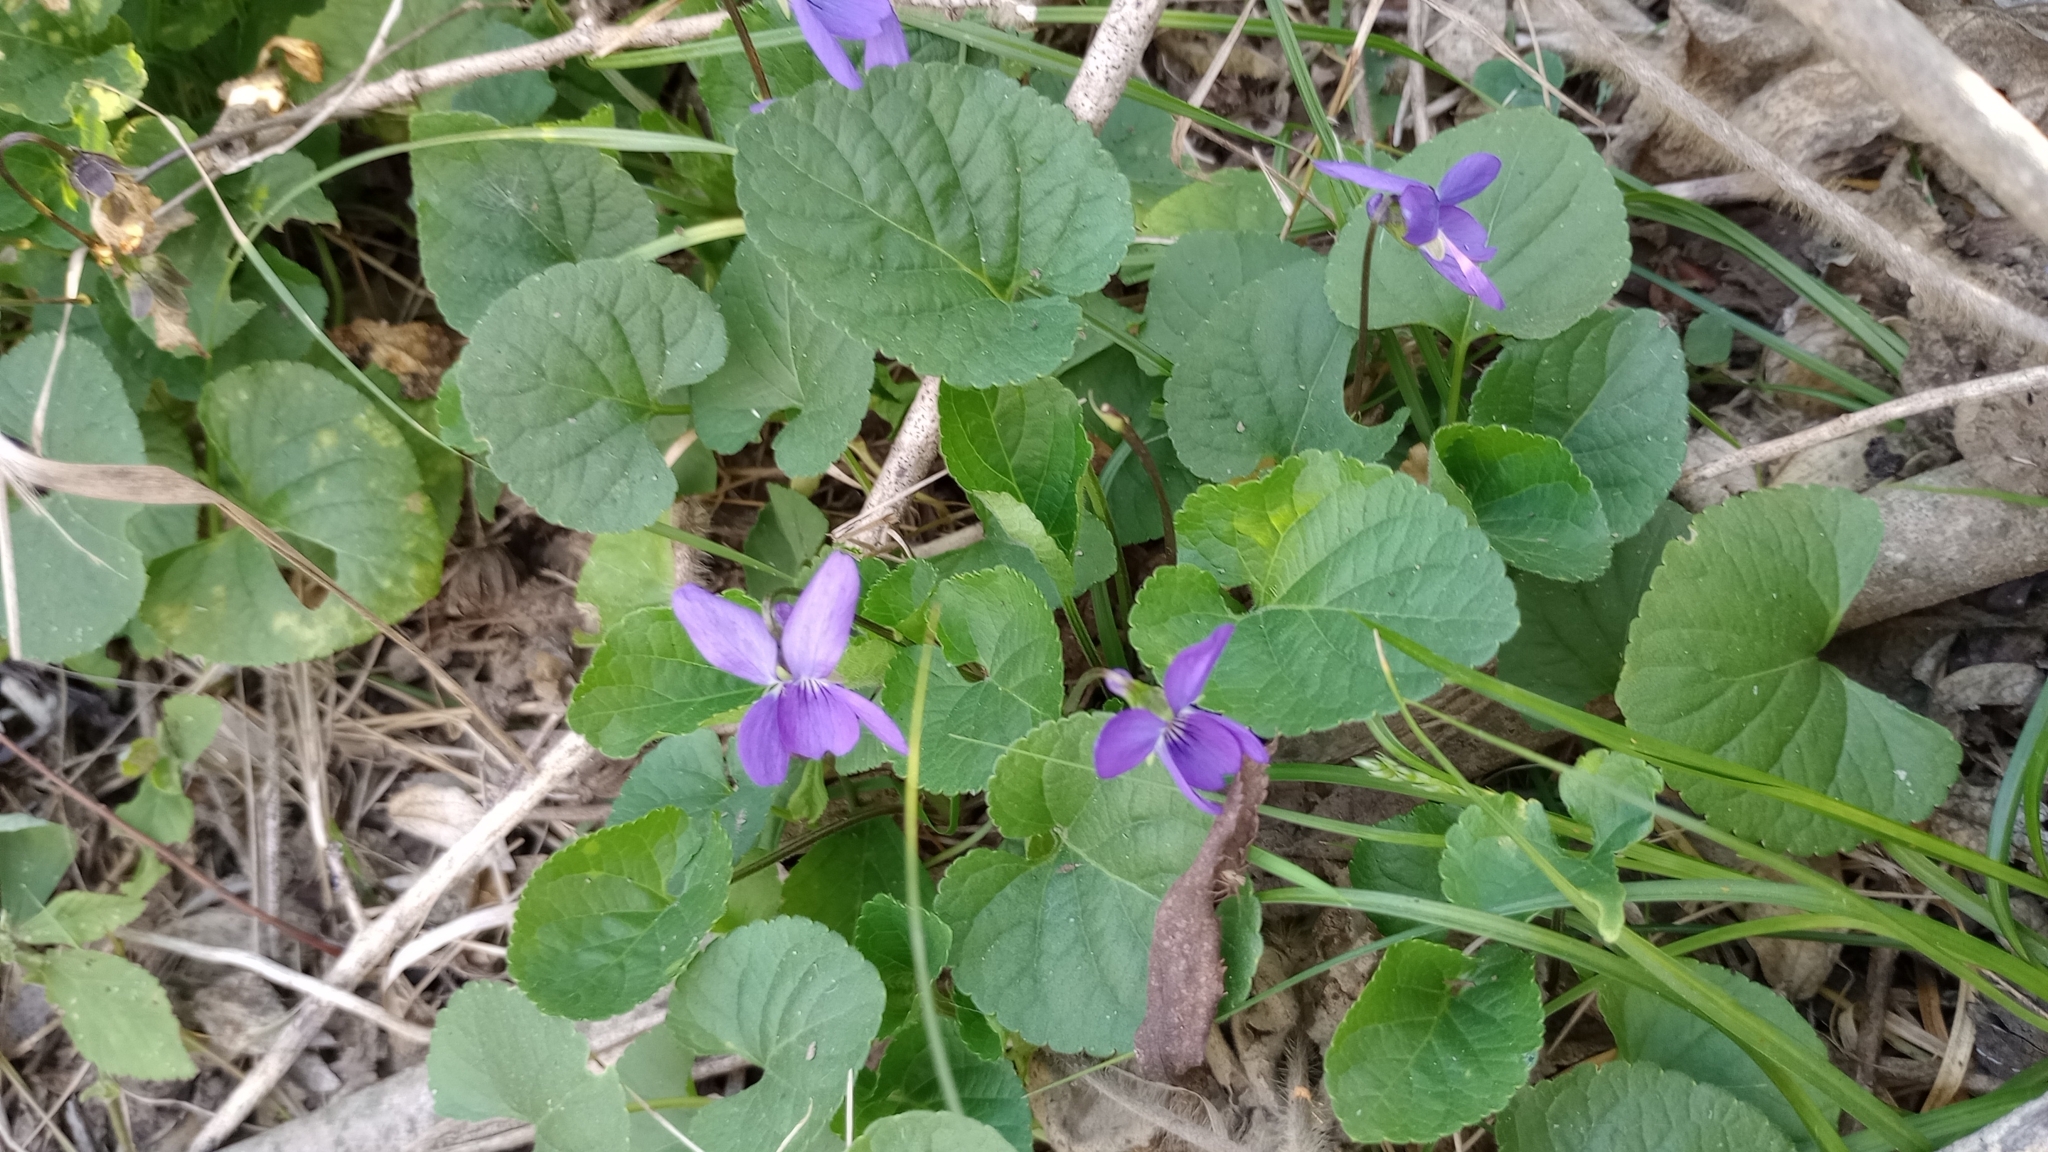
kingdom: Plantae
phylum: Tracheophyta
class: Magnoliopsida
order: Malpighiales
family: Violaceae
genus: Viola
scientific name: Viola odorata
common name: Sweet violet
